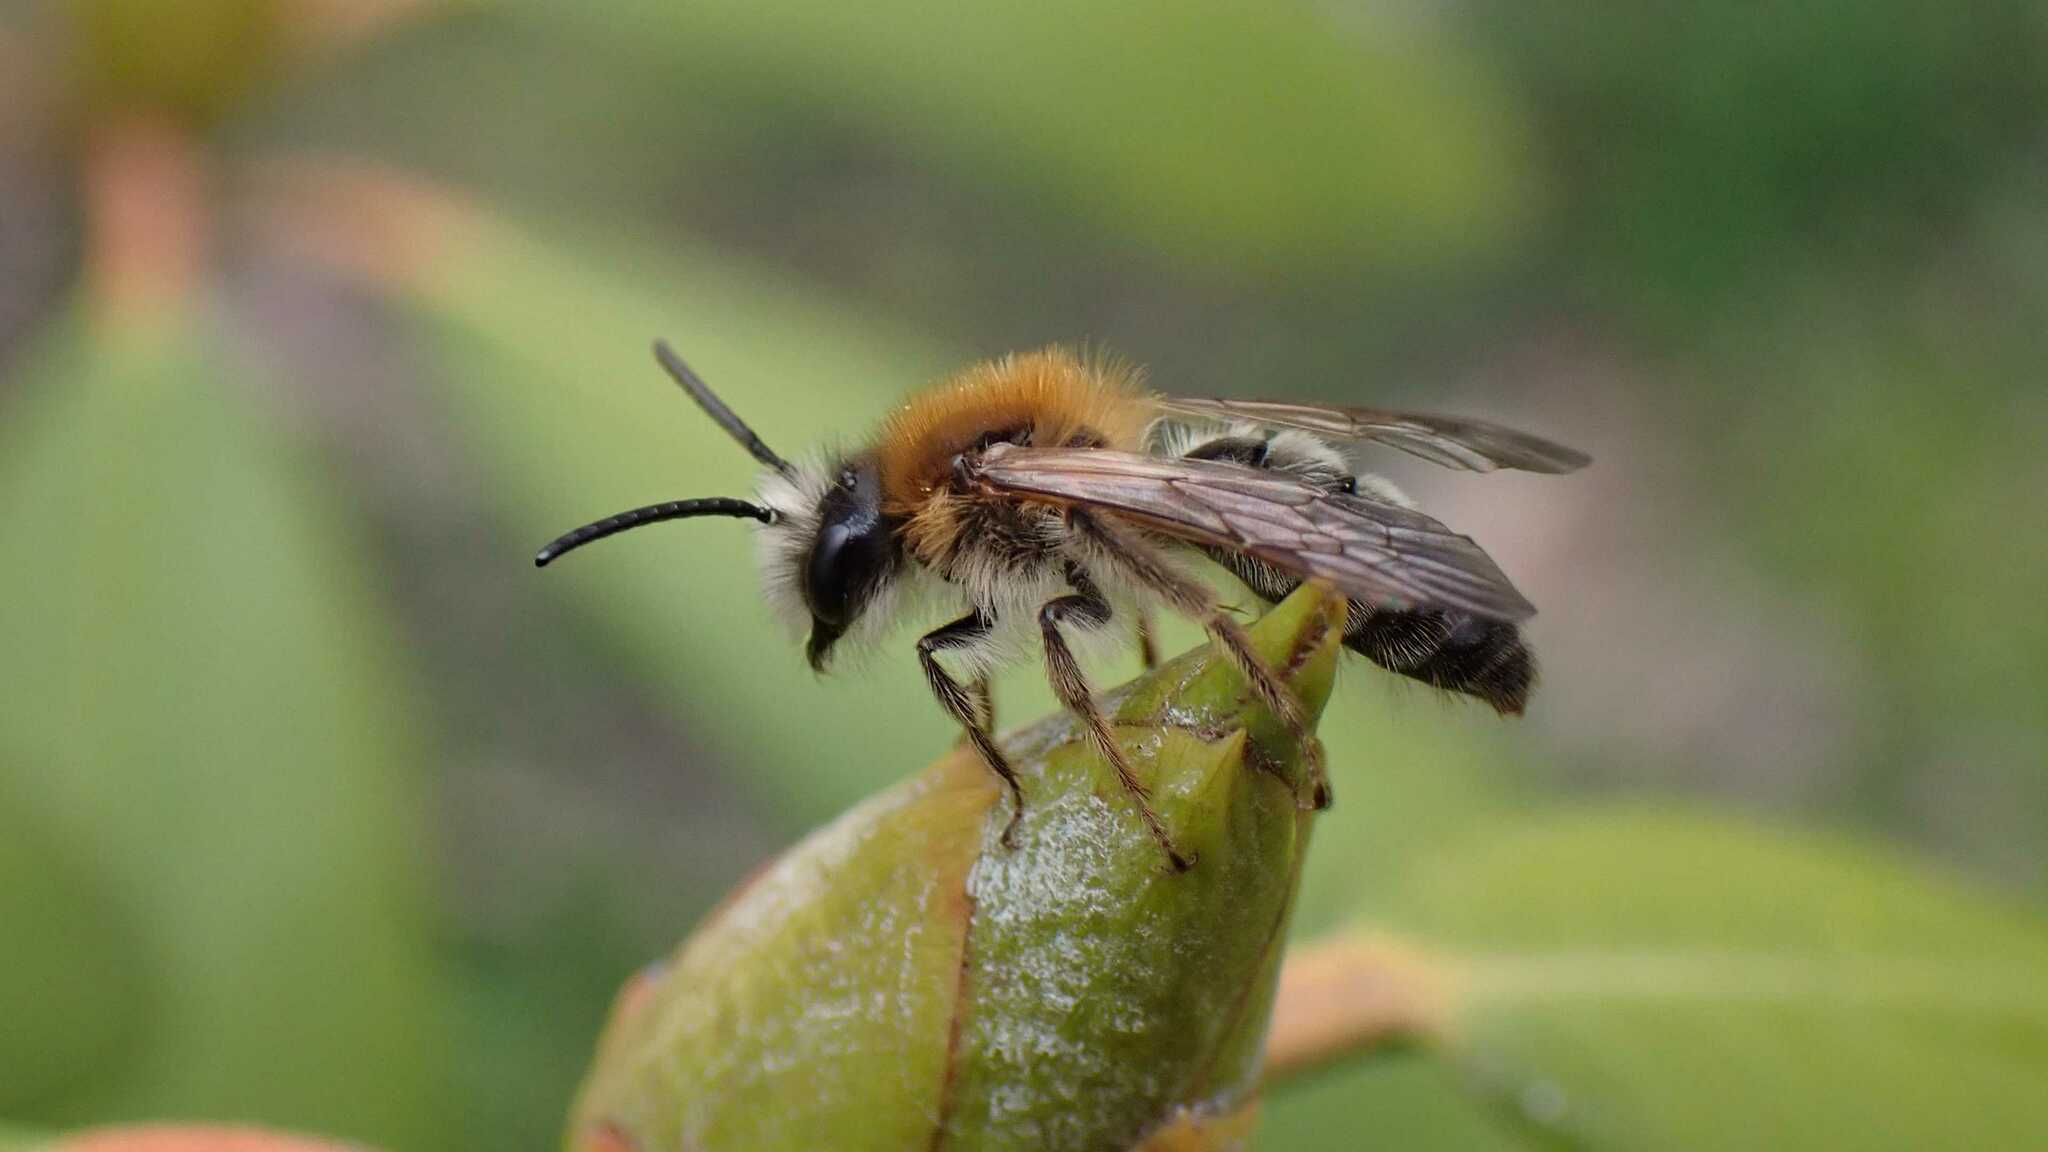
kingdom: Animalia
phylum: Arthropoda
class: Insecta
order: Hymenoptera
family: Andrenidae
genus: Andrena
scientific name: Andrena nitida
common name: Grey-patched mining bee
